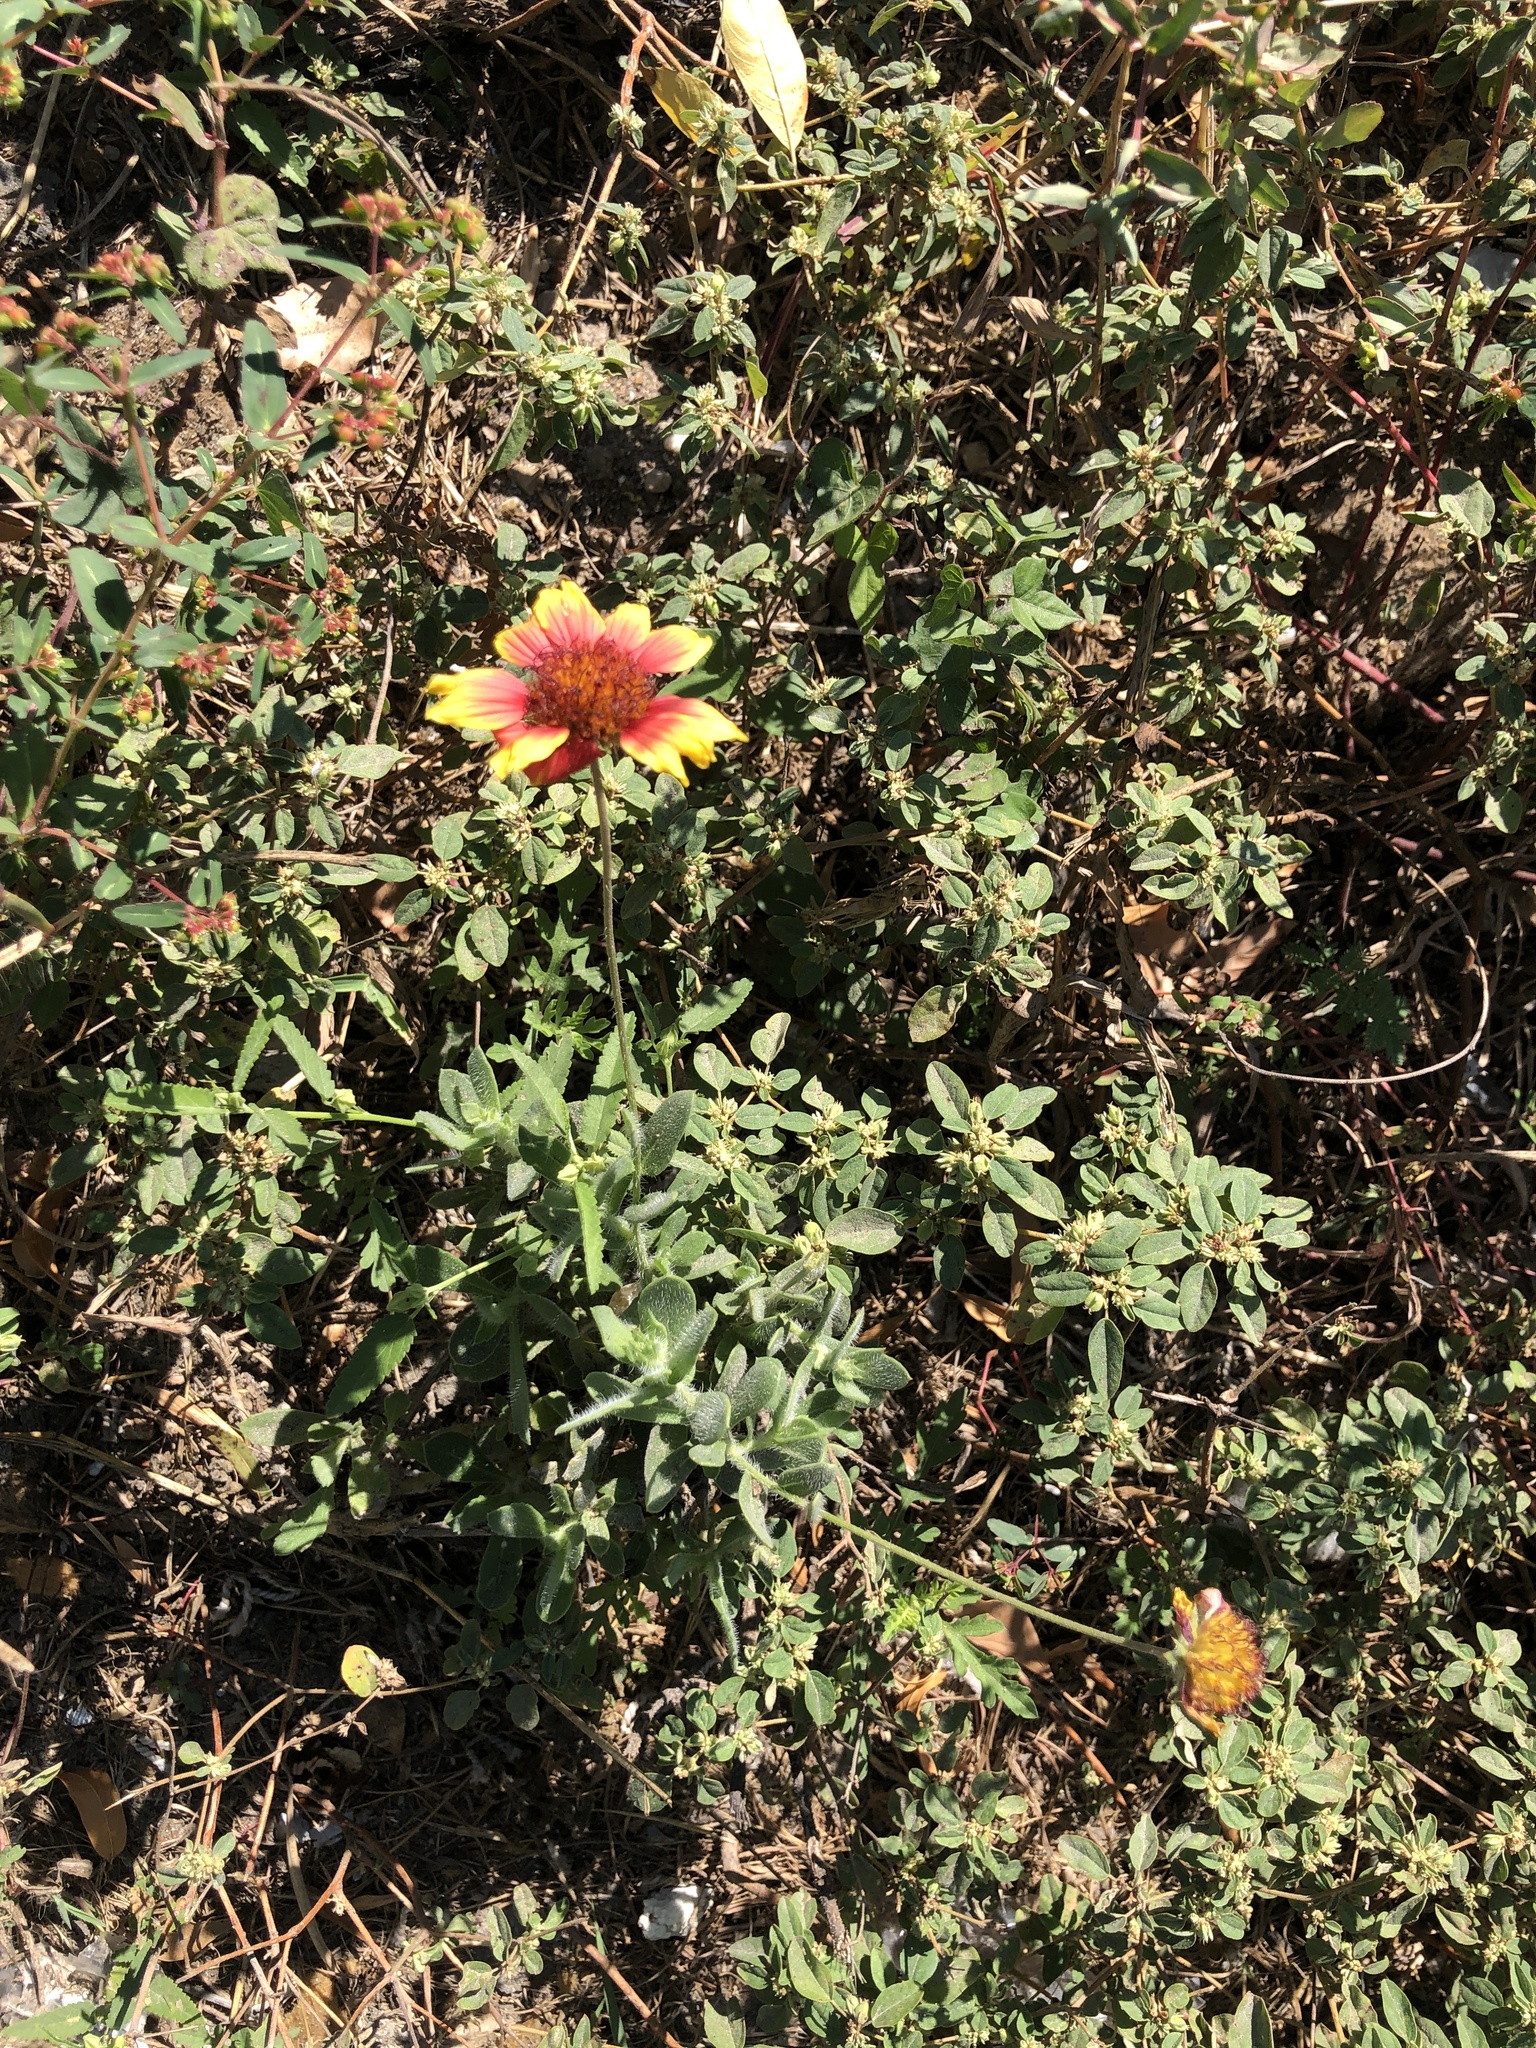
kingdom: Plantae
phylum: Tracheophyta
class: Magnoliopsida
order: Asterales
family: Asteraceae
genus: Gaillardia
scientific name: Gaillardia pulchella
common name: Firewheel
